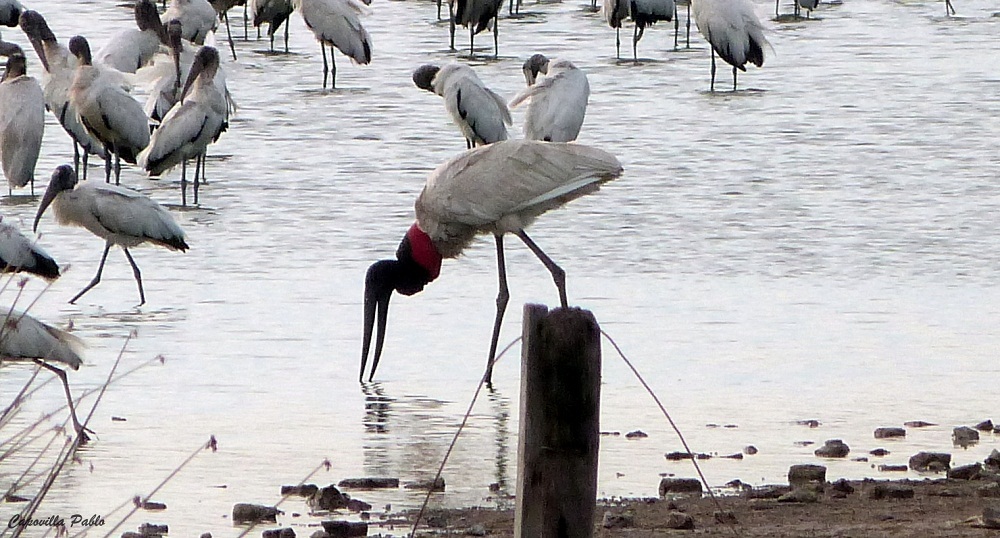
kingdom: Animalia
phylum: Chordata
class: Aves
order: Ciconiiformes
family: Ciconiidae
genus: Jabiru
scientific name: Jabiru mycteria
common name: Jabiru
